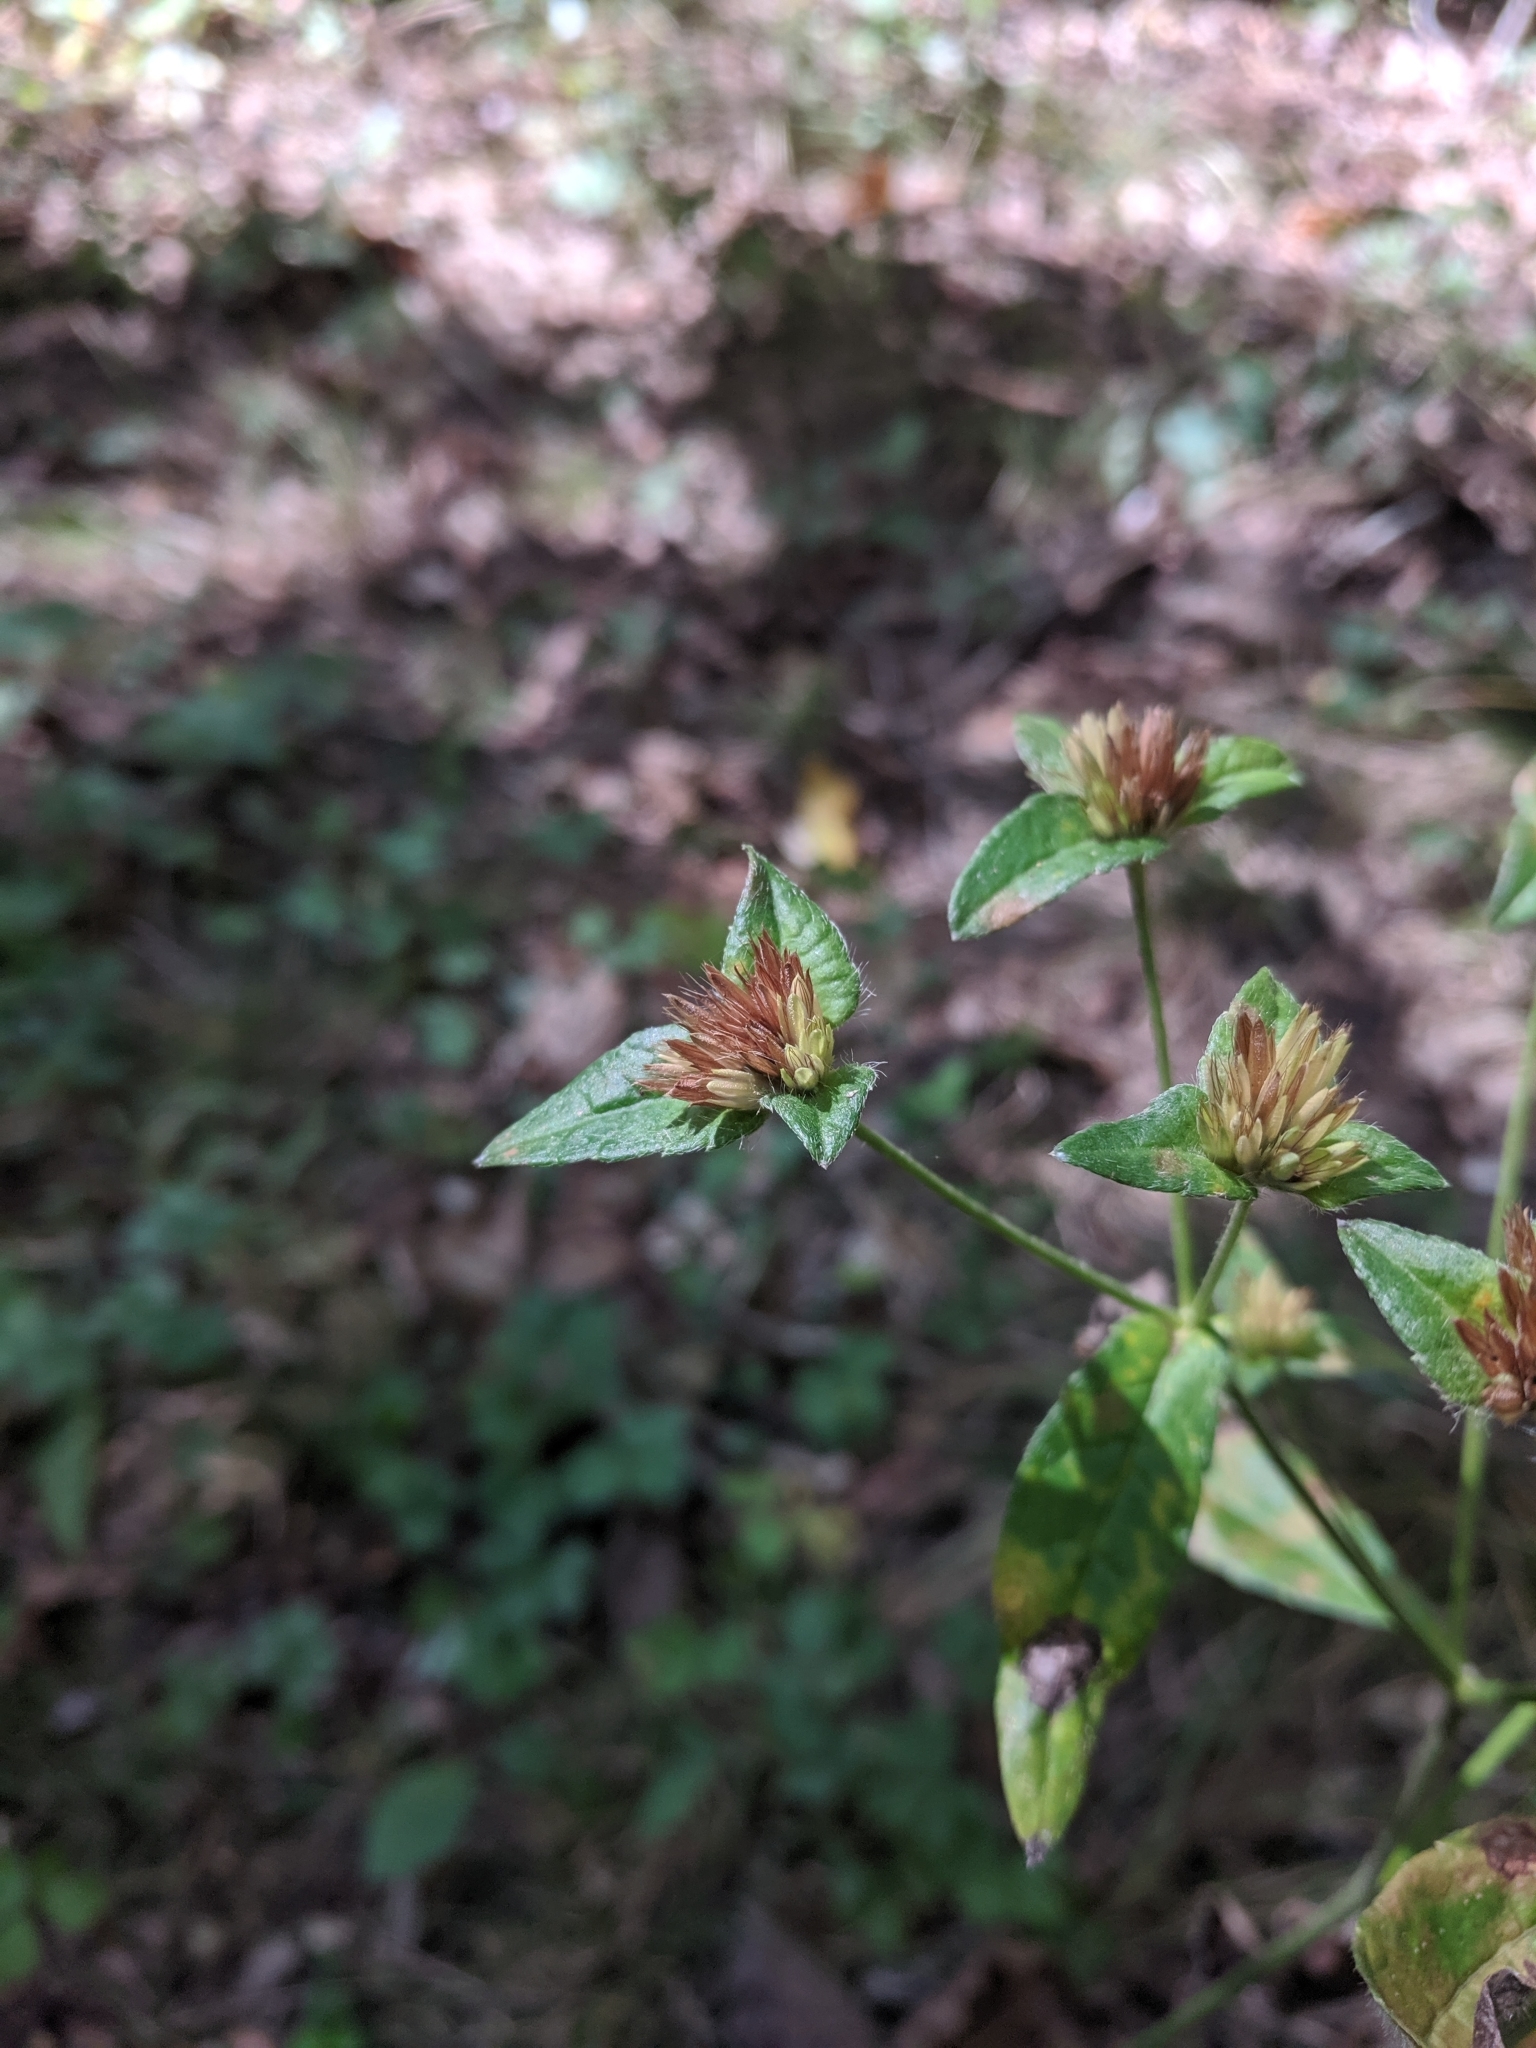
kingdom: Plantae
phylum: Tracheophyta
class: Magnoliopsida
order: Asterales
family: Asteraceae
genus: Elephantopus
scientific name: Elephantopus carolinianus
